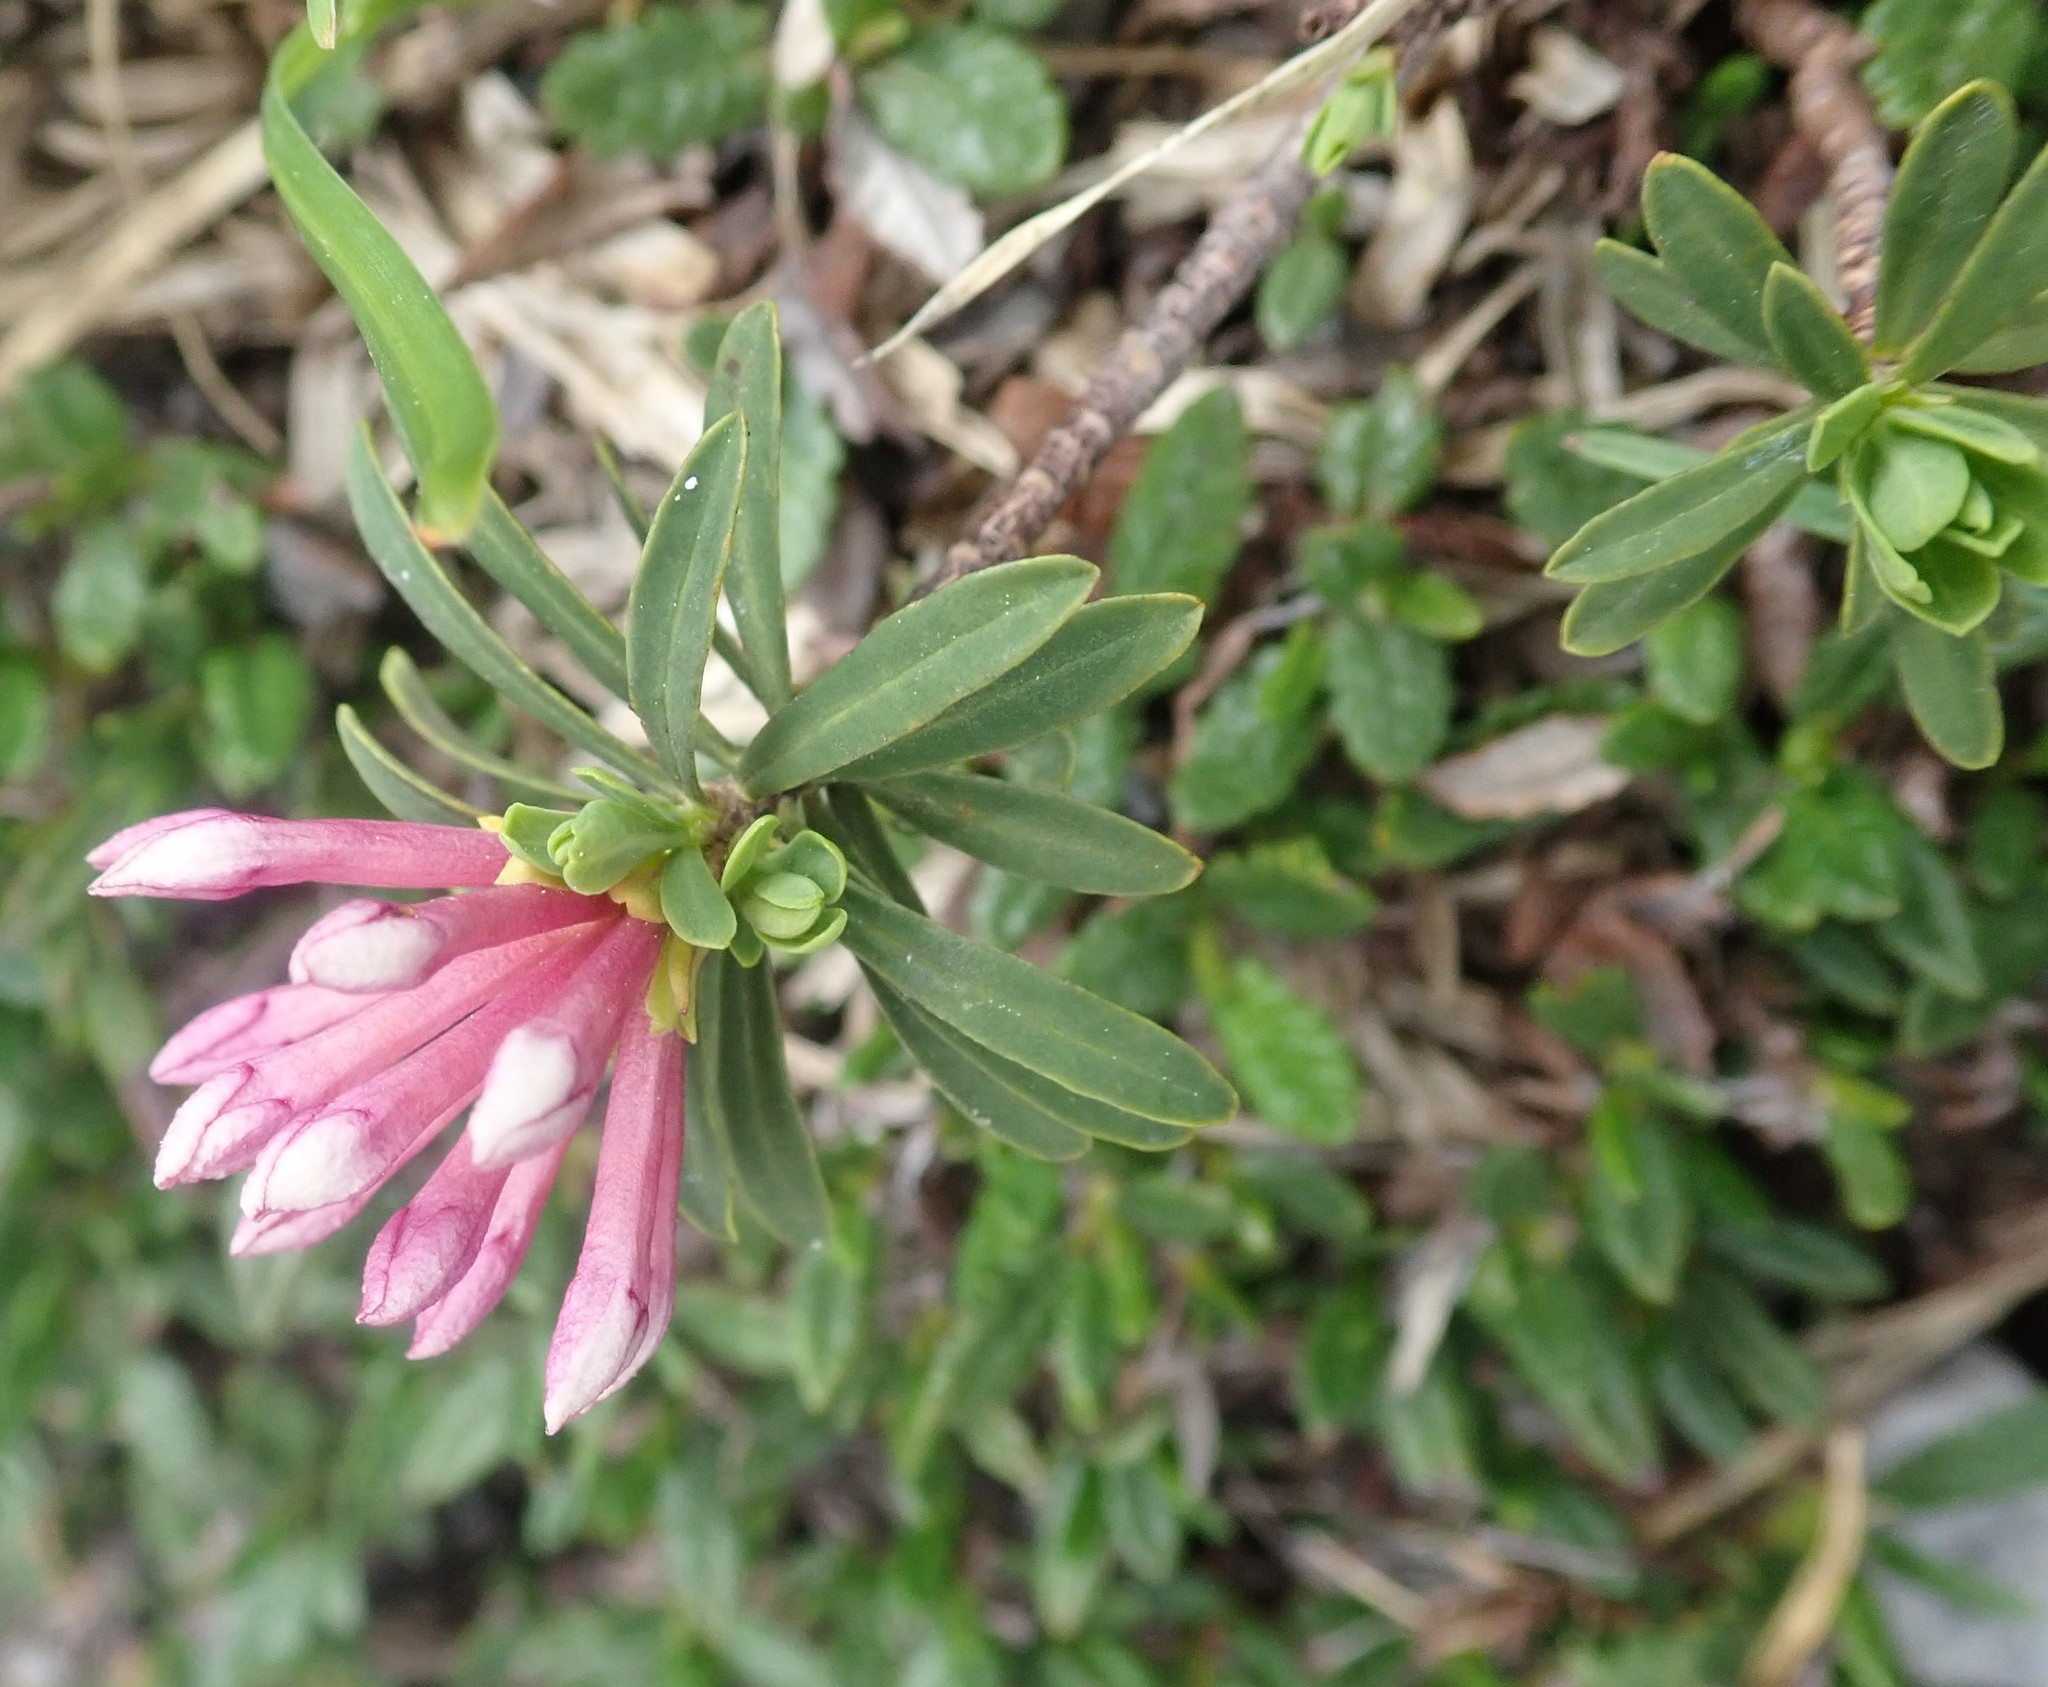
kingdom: Plantae
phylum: Tracheophyta
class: Magnoliopsida
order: Malvales
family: Thymelaeaceae
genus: Daphne
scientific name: Daphne striata
